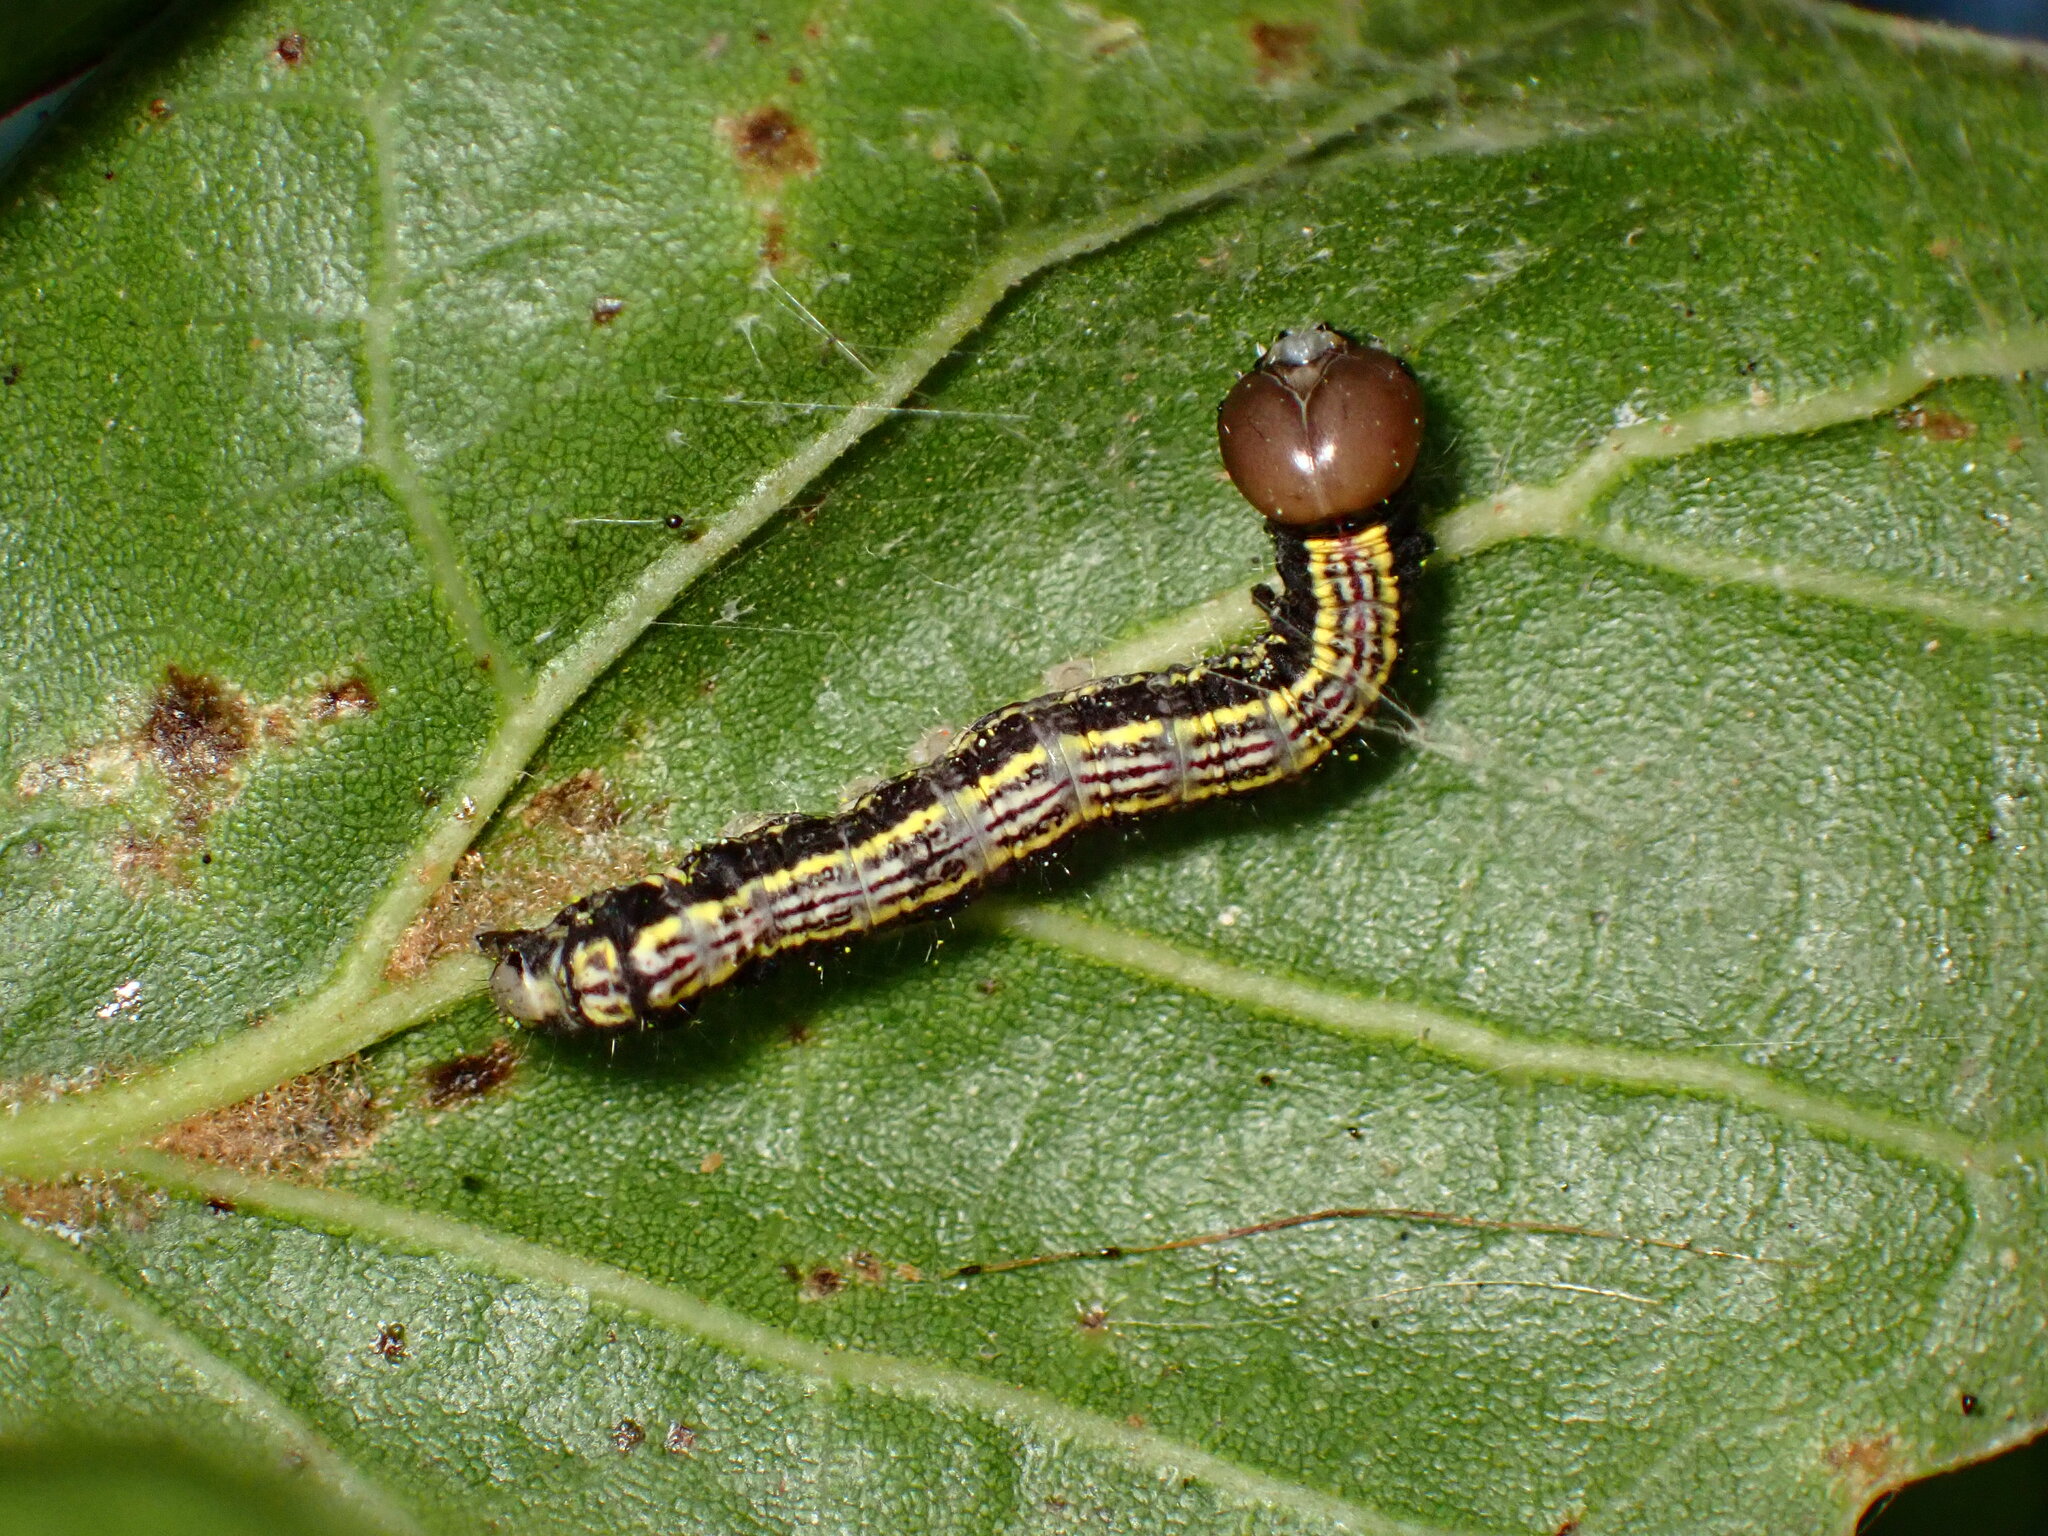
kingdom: Animalia
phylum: Arthropoda
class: Insecta
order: Lepidoptera
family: Notodontidae
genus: Phryganidia
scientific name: Phryganidia californica
